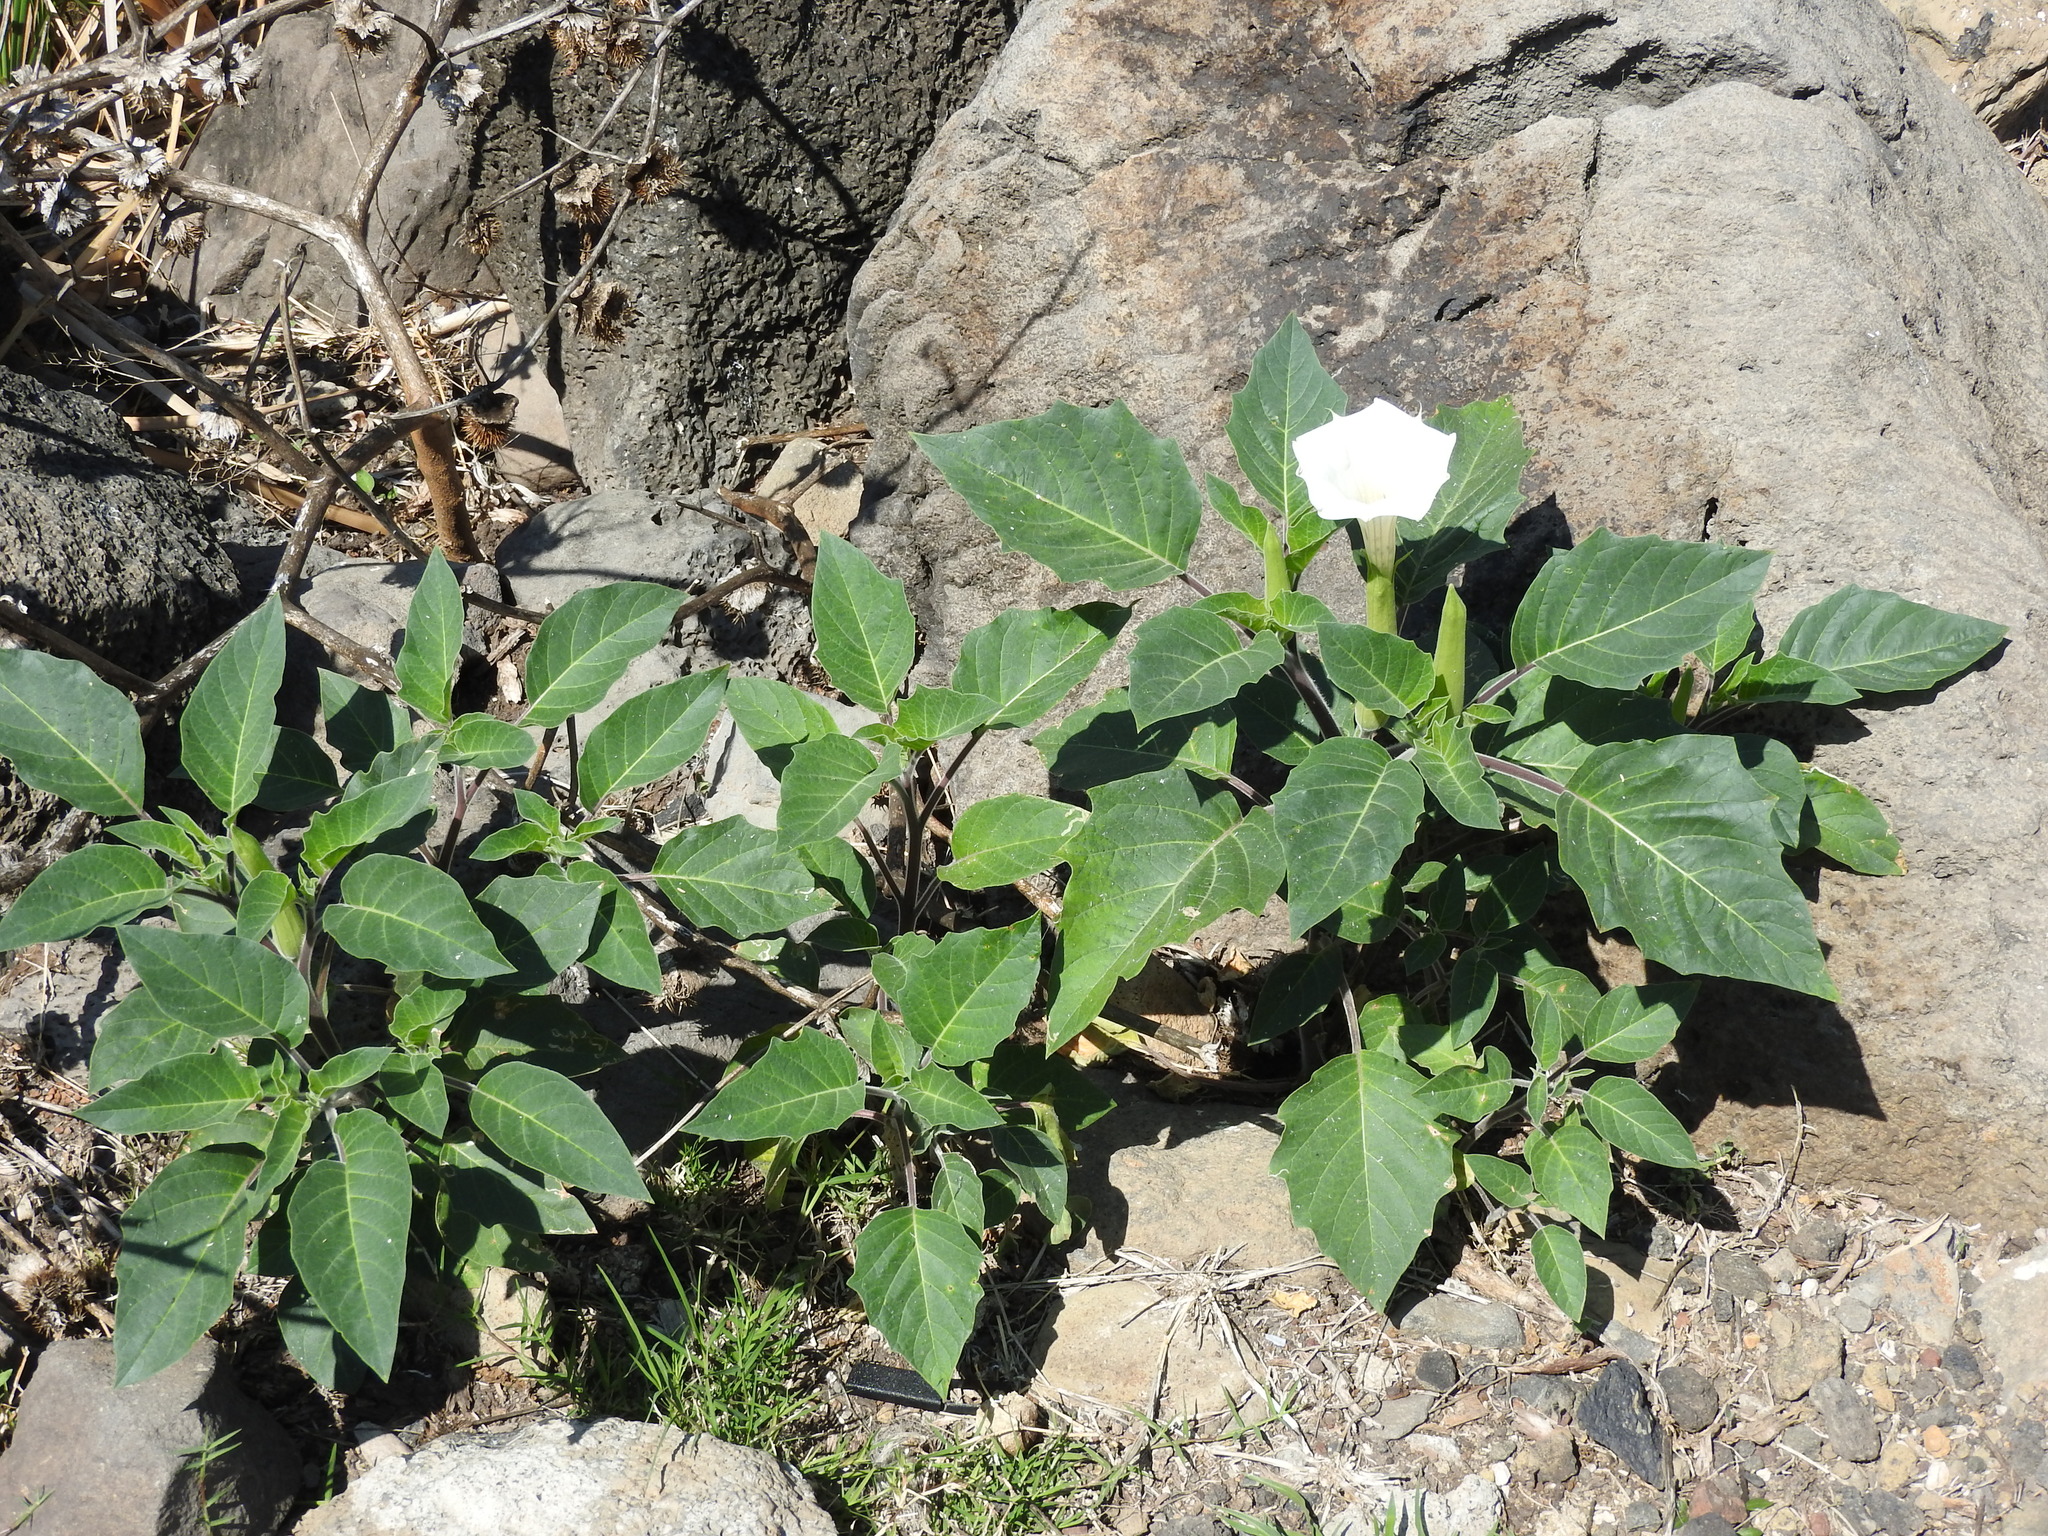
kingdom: Plantae
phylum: Tracheophyta
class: Magnoliopsida
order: Solanales
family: Solanaceae
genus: Datura
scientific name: Datura innoxia
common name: Downy thorn-apple
